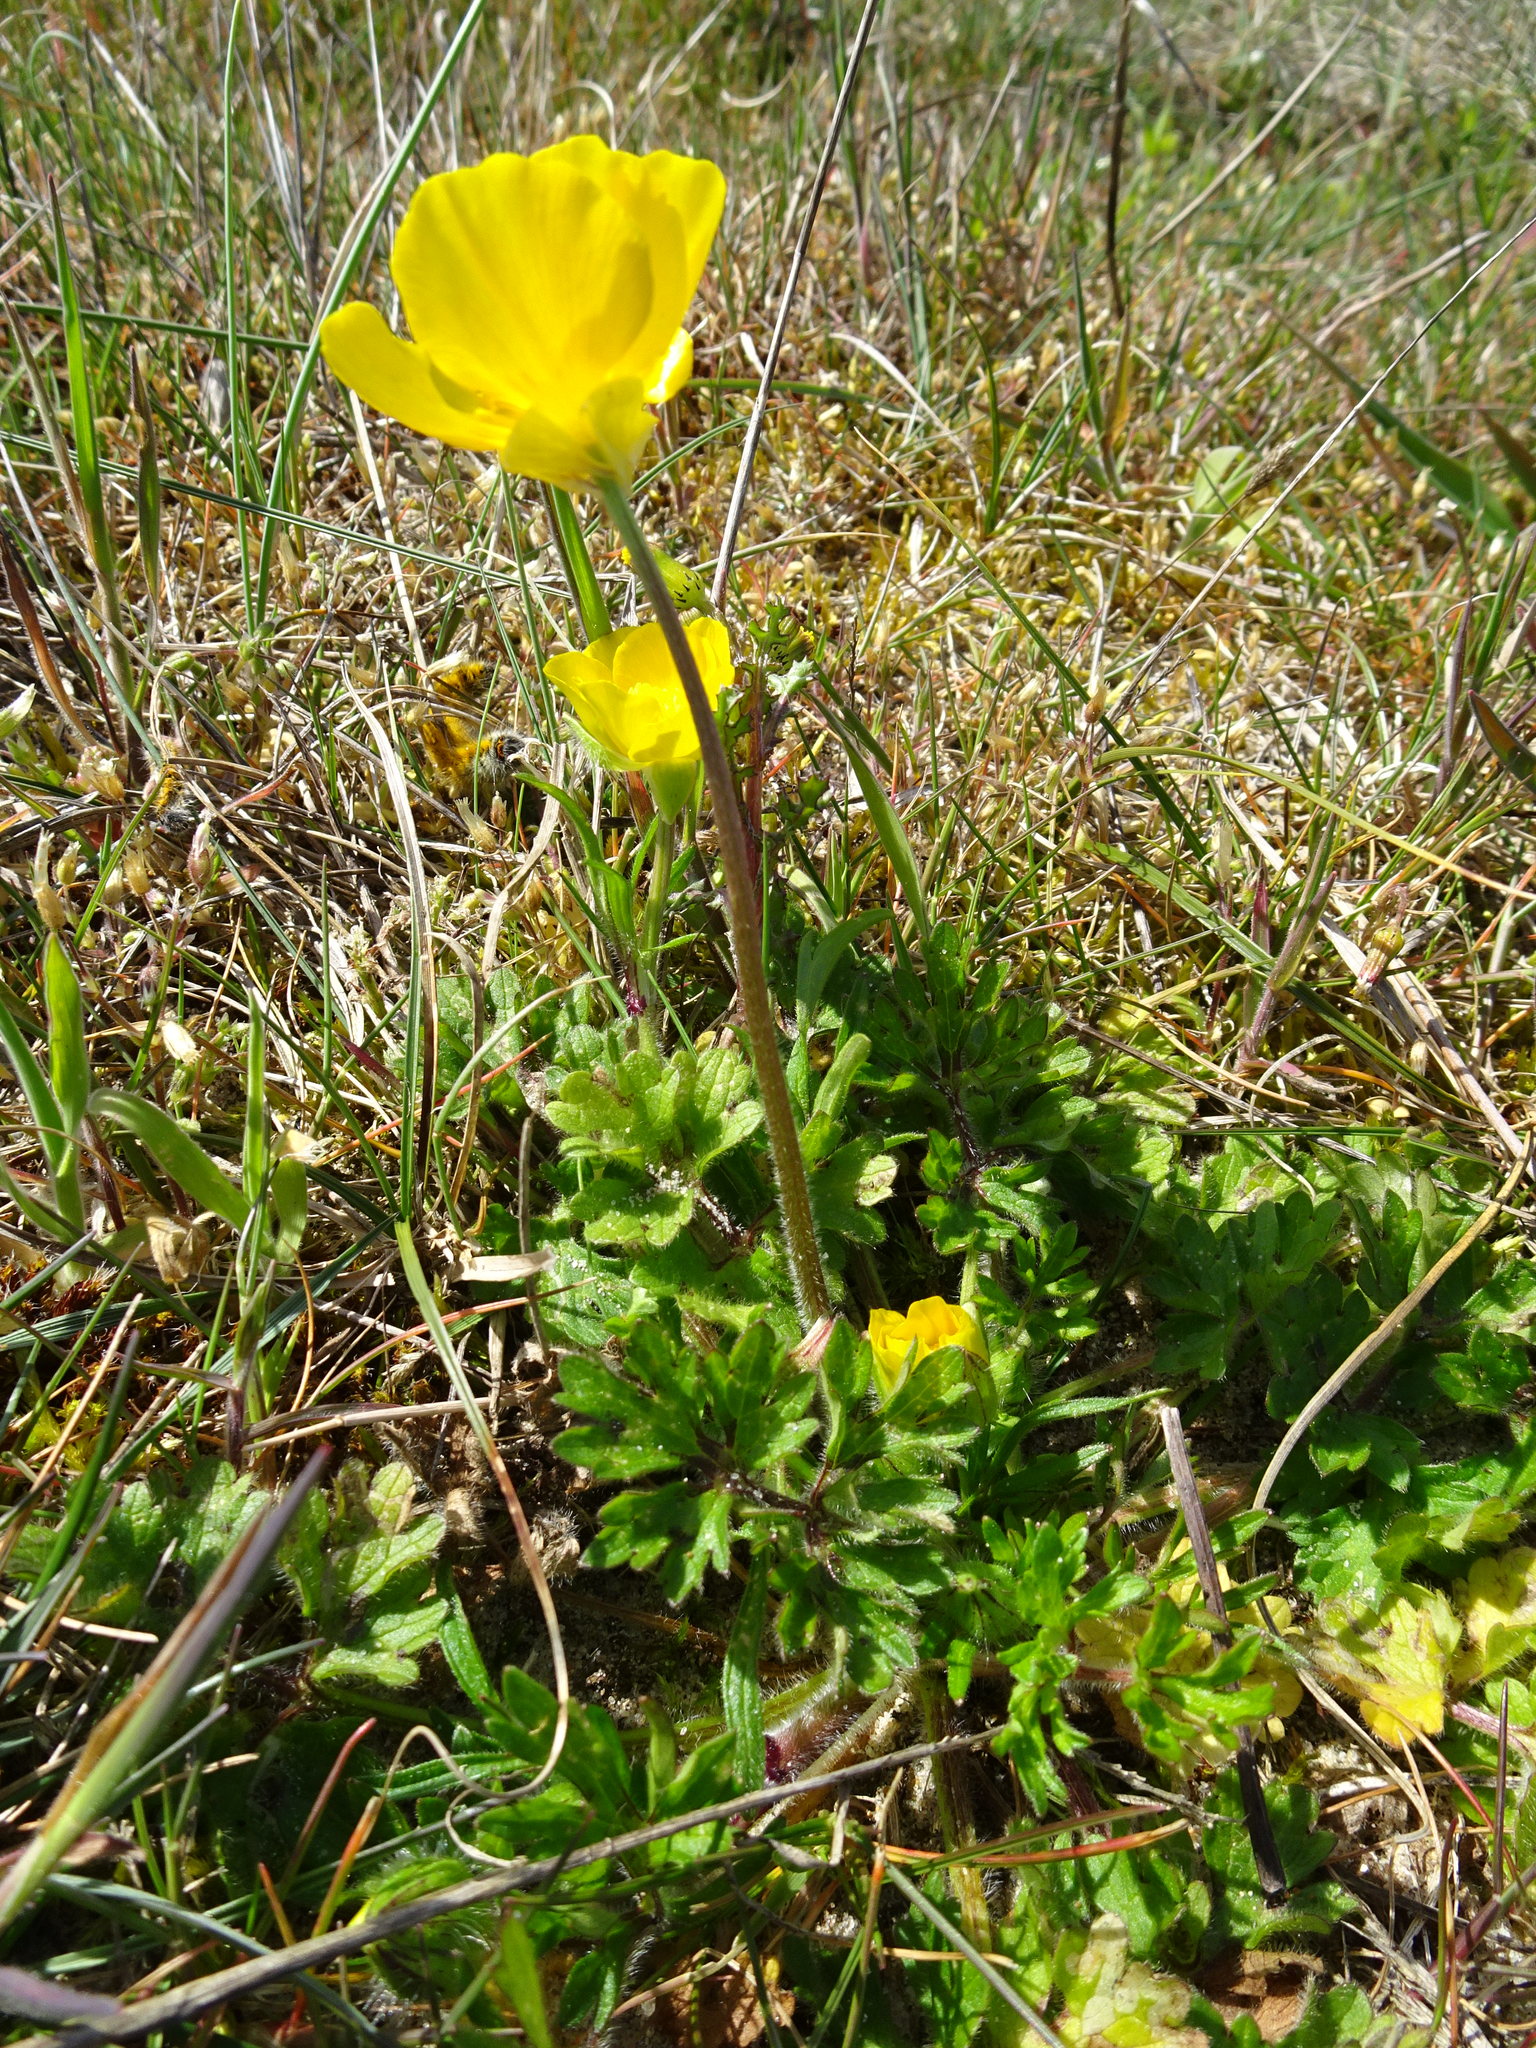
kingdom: Plantae
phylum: Tracheophyta
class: Magnoliopsida
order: Ranunculales
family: Ranunculaceae
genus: Ranunculus
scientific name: Ranunculus bulbosus
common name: Bulbous buttercup
